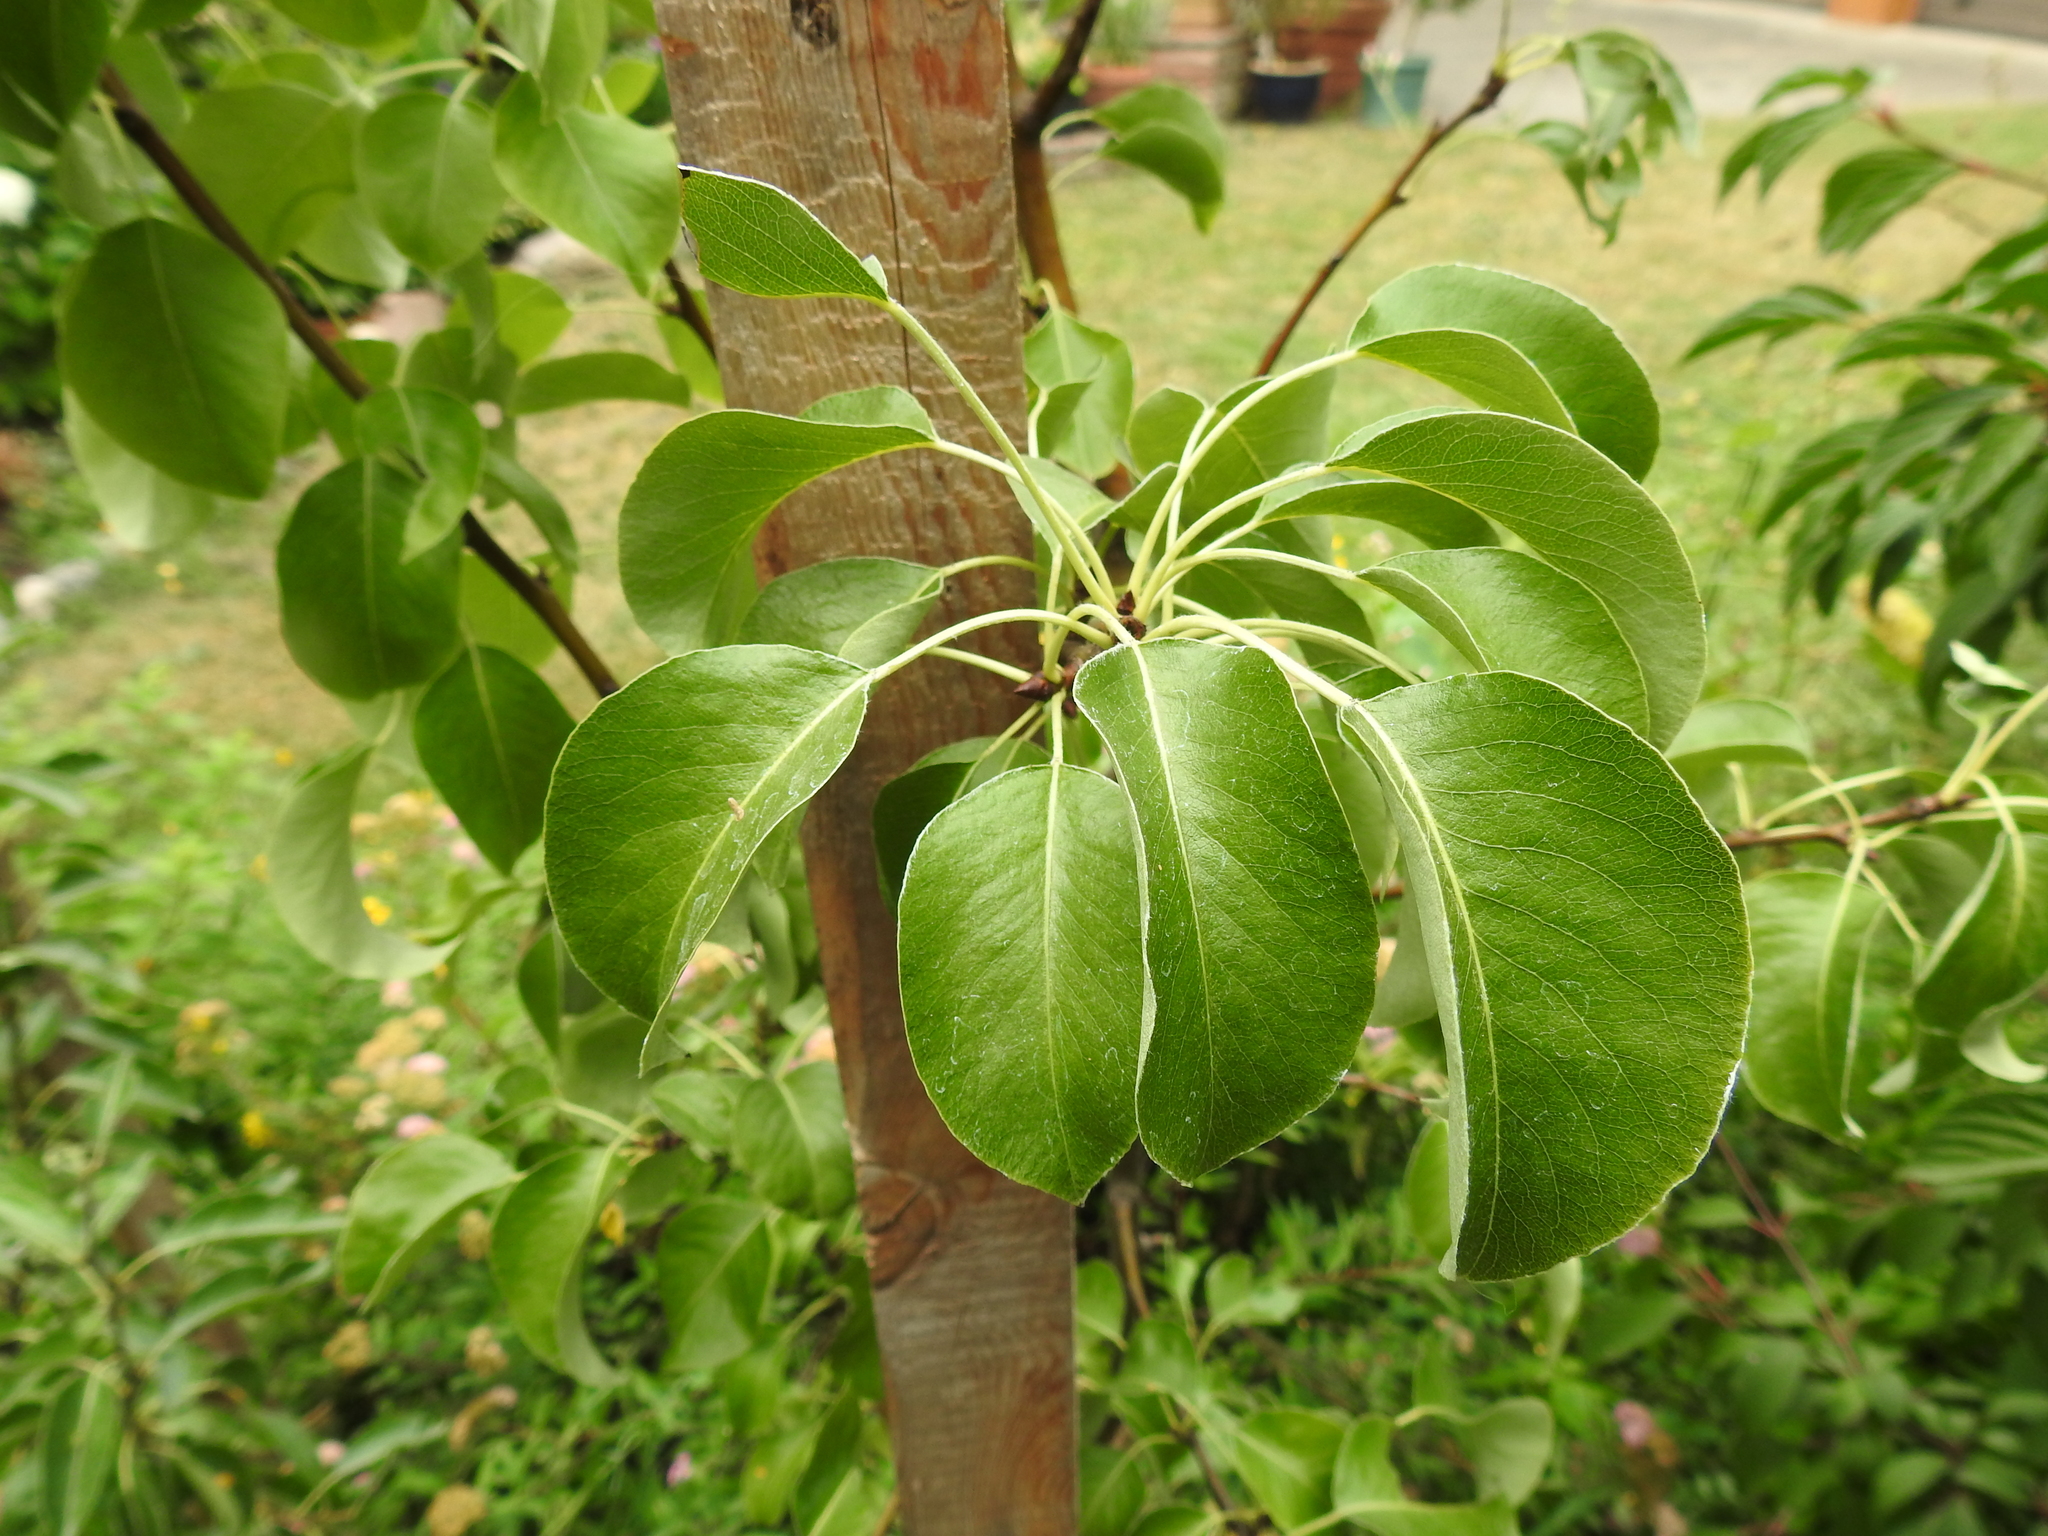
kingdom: Fungi
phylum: Basidiomycota
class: Pucciniomycetes
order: Pucciniales
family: Gymnosporangiaceae
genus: Gymnosporangium
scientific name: Gymnosporangium
